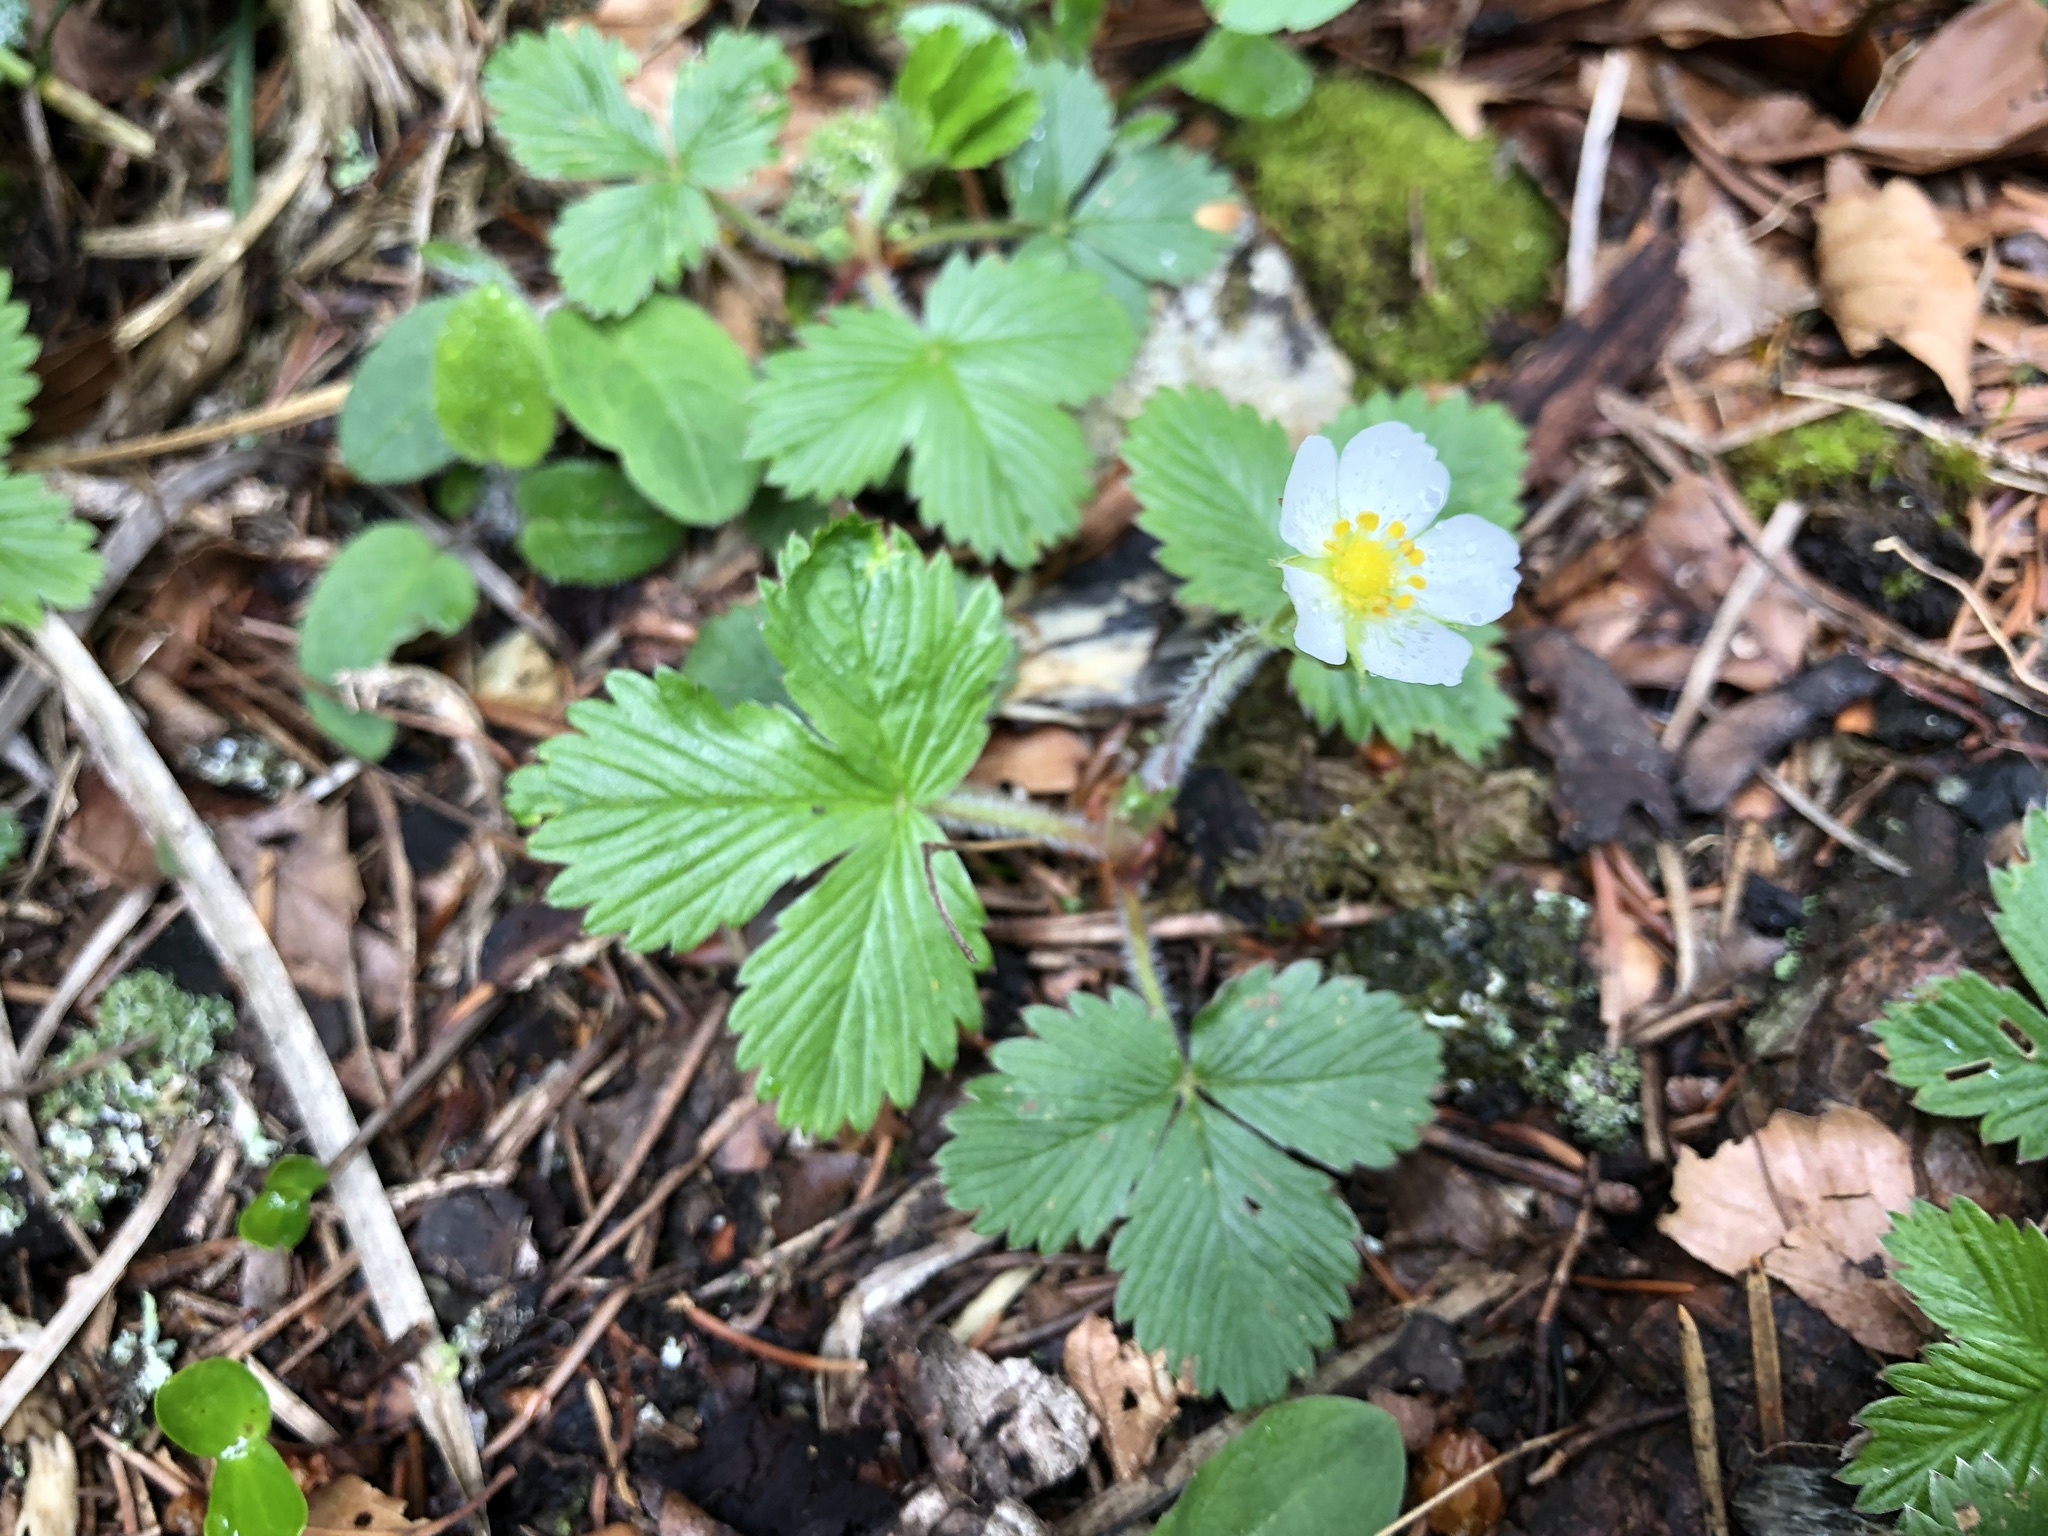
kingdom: Plantae
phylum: Tracheophyta
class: Magnoliopsida
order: Rosales
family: Rosaceae
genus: Fragaria
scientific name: Fragaria vesca
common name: Wild strawberry
